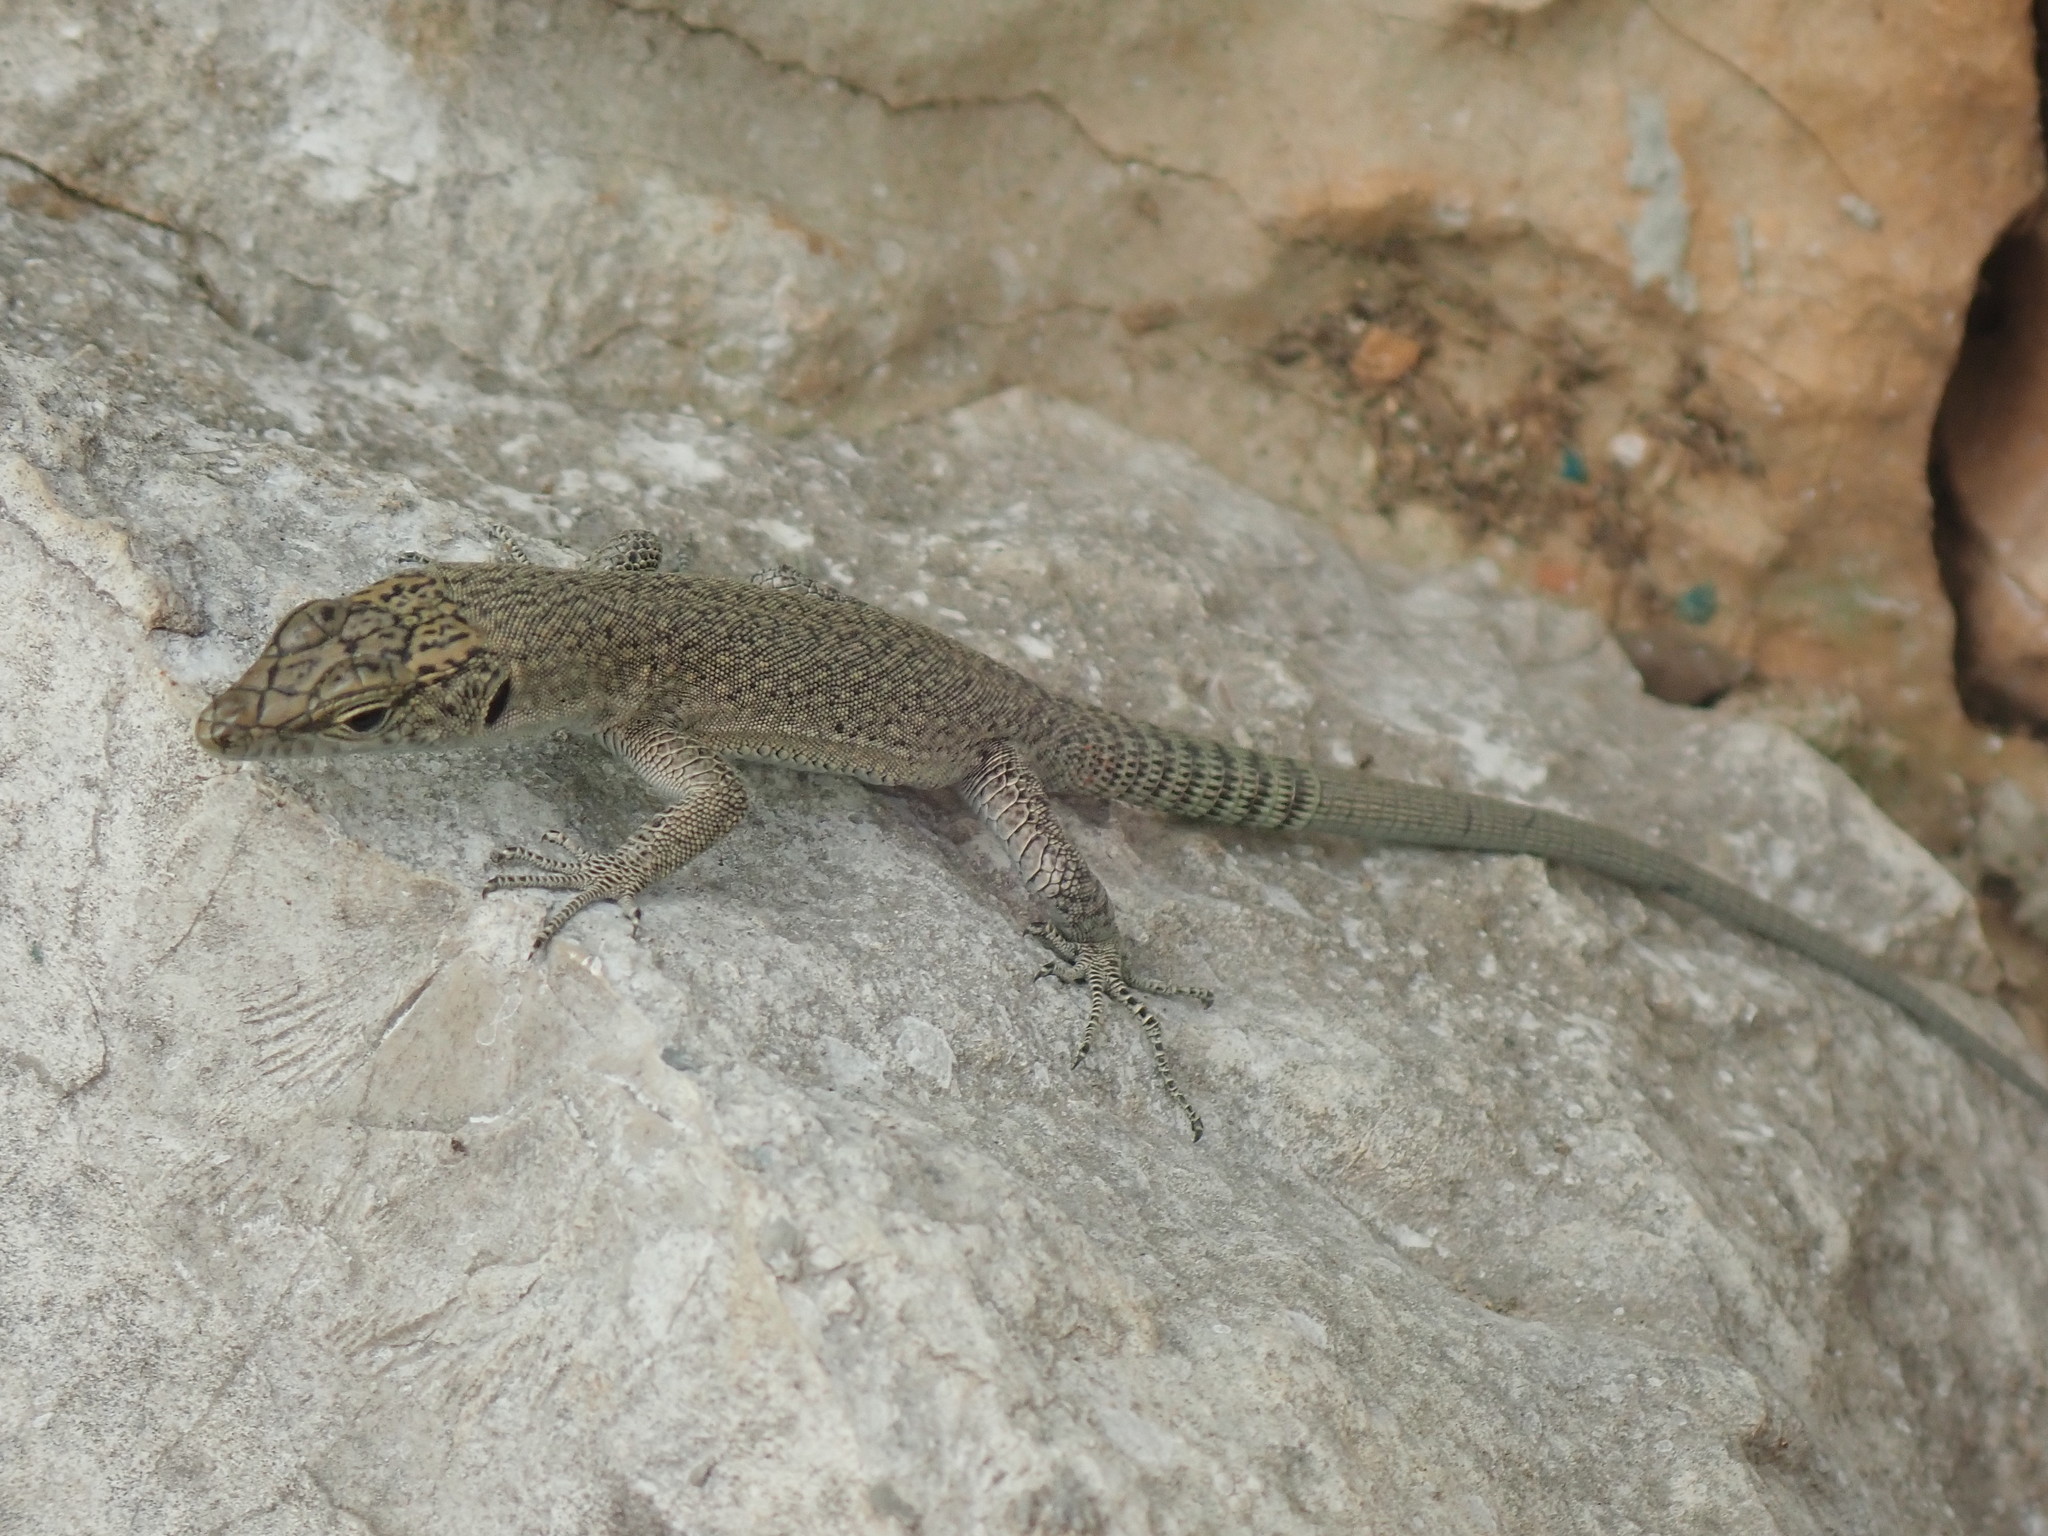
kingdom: Animalia
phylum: Chordata
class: Squamata
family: Lacertidae
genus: Dalmatolacerta
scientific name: Dalmatolacerta oxycephala
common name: Sharp-snouted rock lizard
